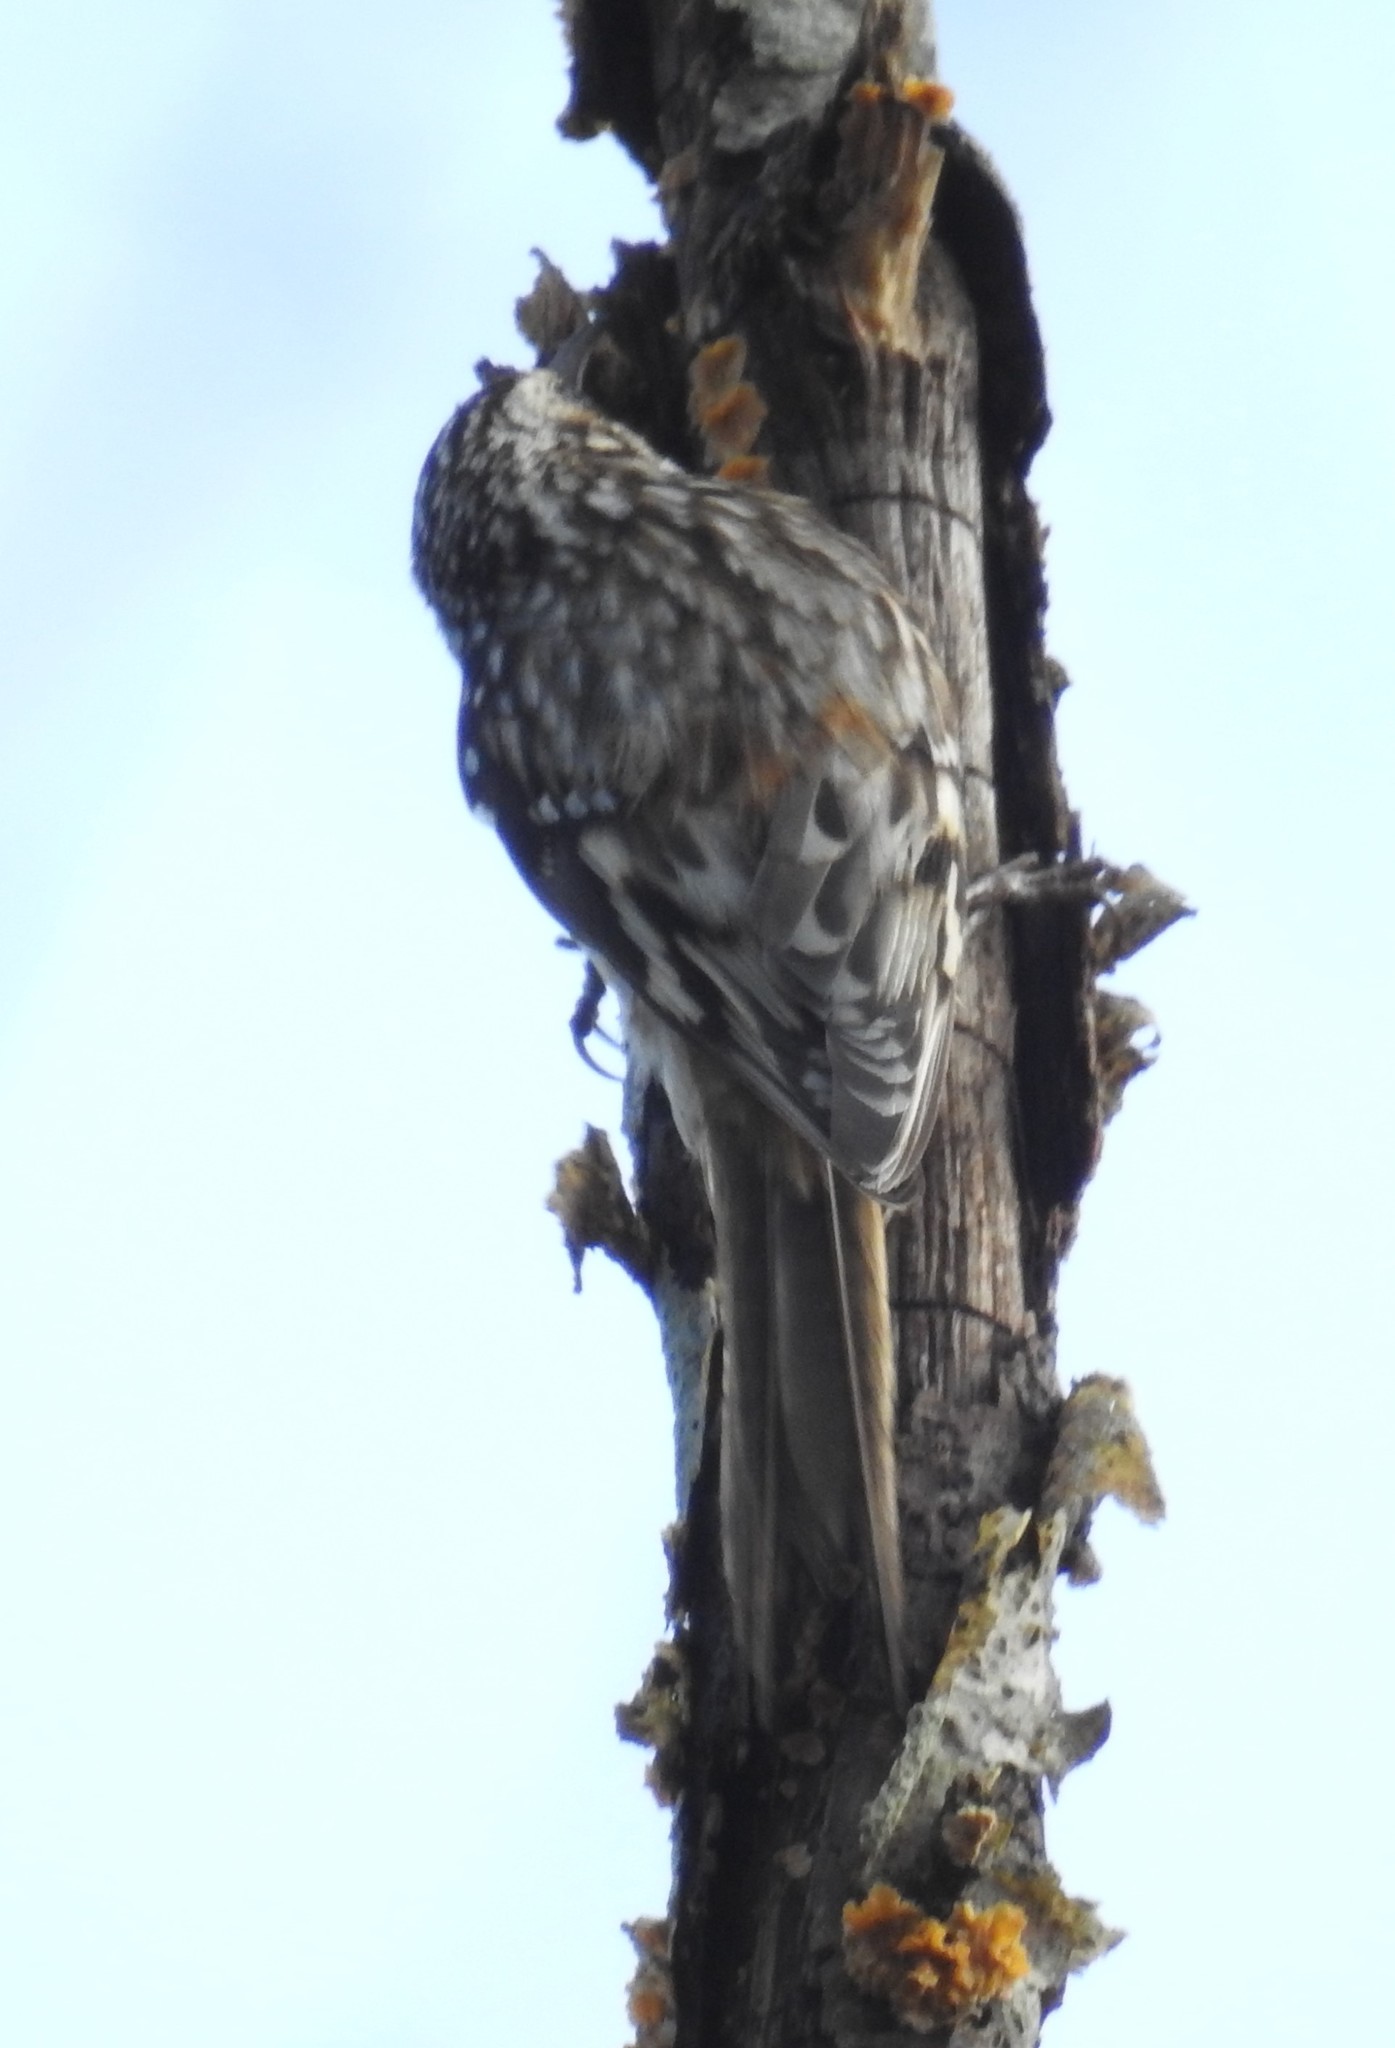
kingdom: Animalia
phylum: Chordata
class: Aves
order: Passeriformes
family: Certhiidae
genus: Certhia
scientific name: Certhia americana
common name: Brown creeper
